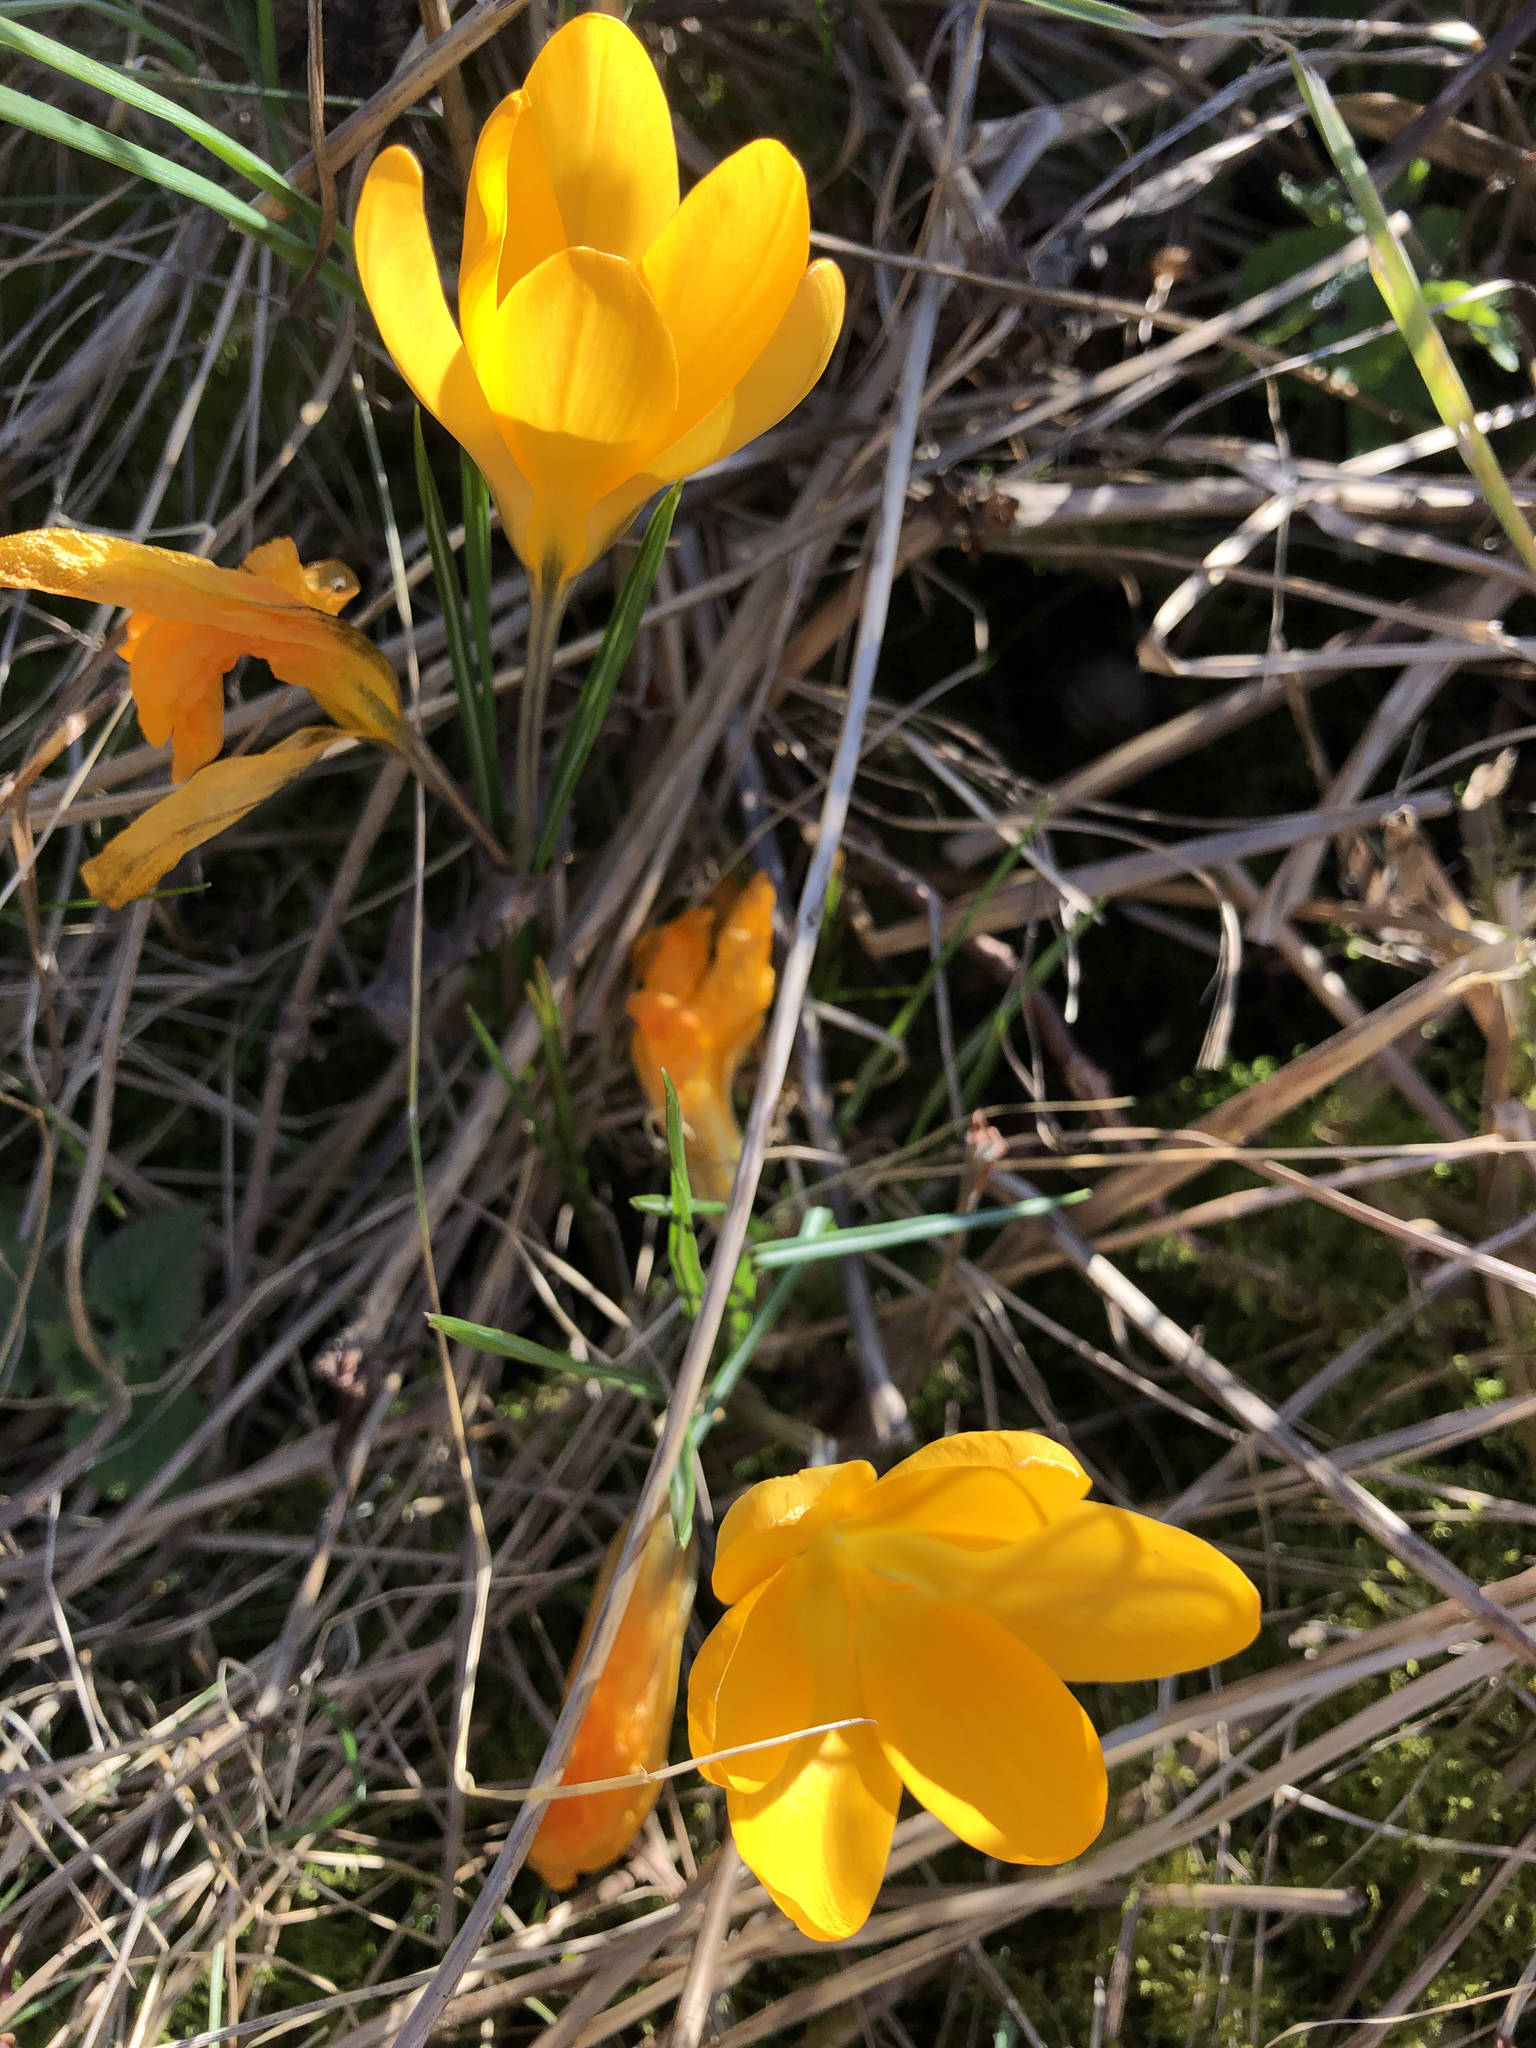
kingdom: Plantae
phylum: Tracheophyta
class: Liliopsida
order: Asparagales
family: Iridaceae
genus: Crocus
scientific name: Crocus luteus
